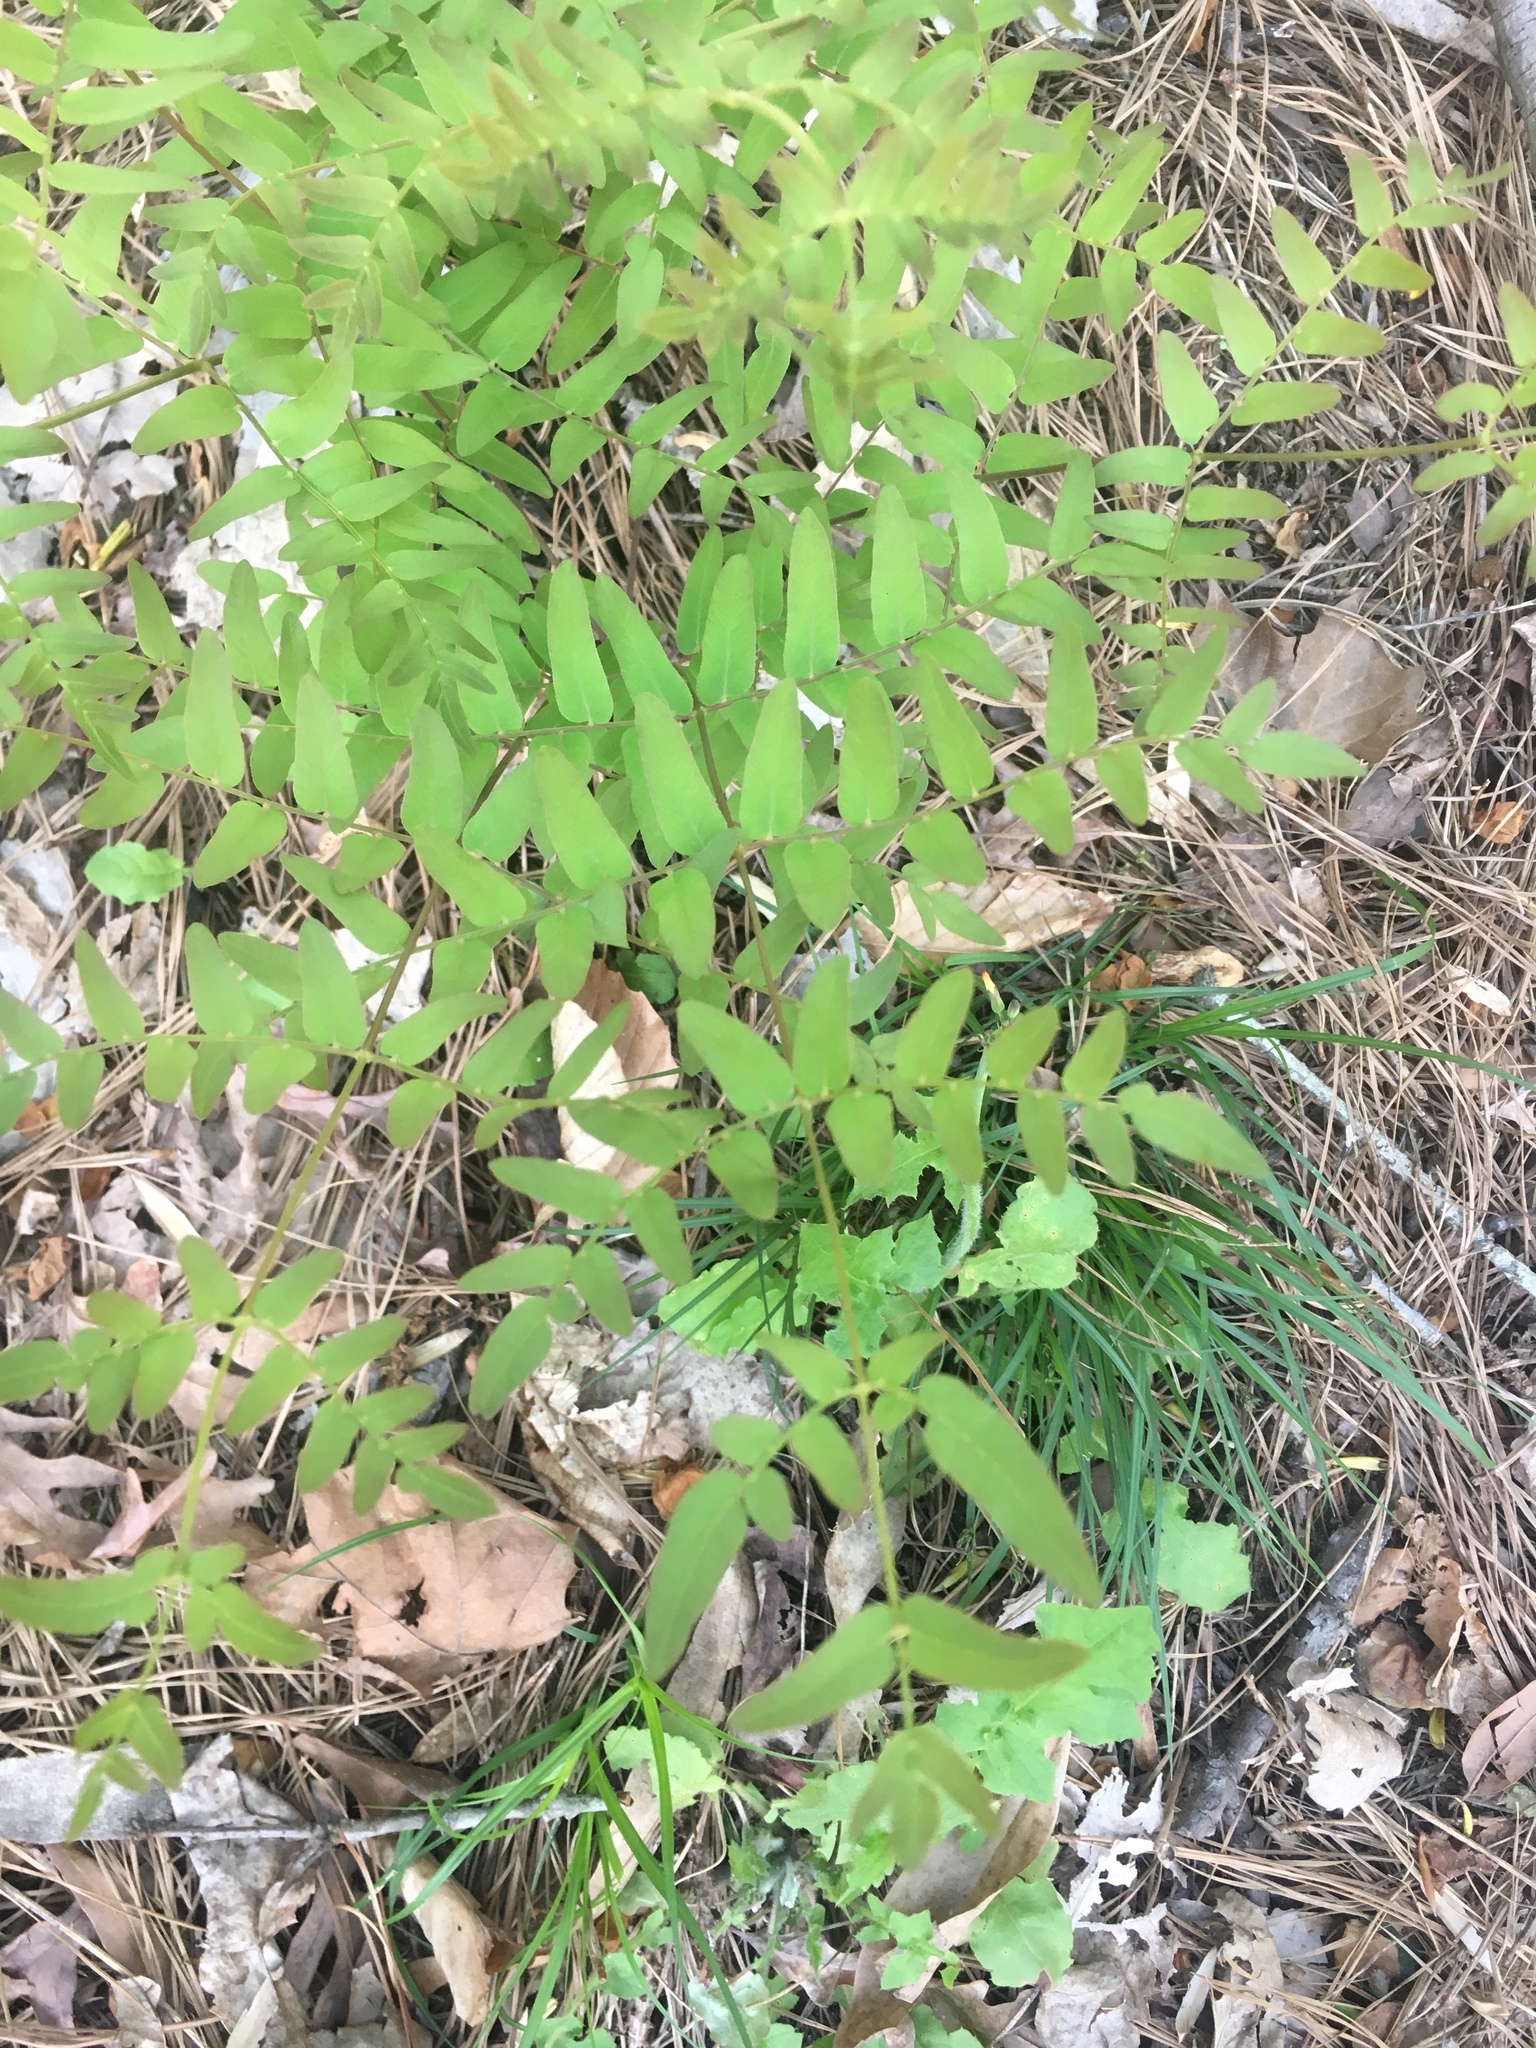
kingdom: Plantae
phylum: Tracheophyta
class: Polypodiopsida
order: Osmundales
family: Osmundaceae
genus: Osmunda
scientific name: Osmunda spectabilis
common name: American royal fern
